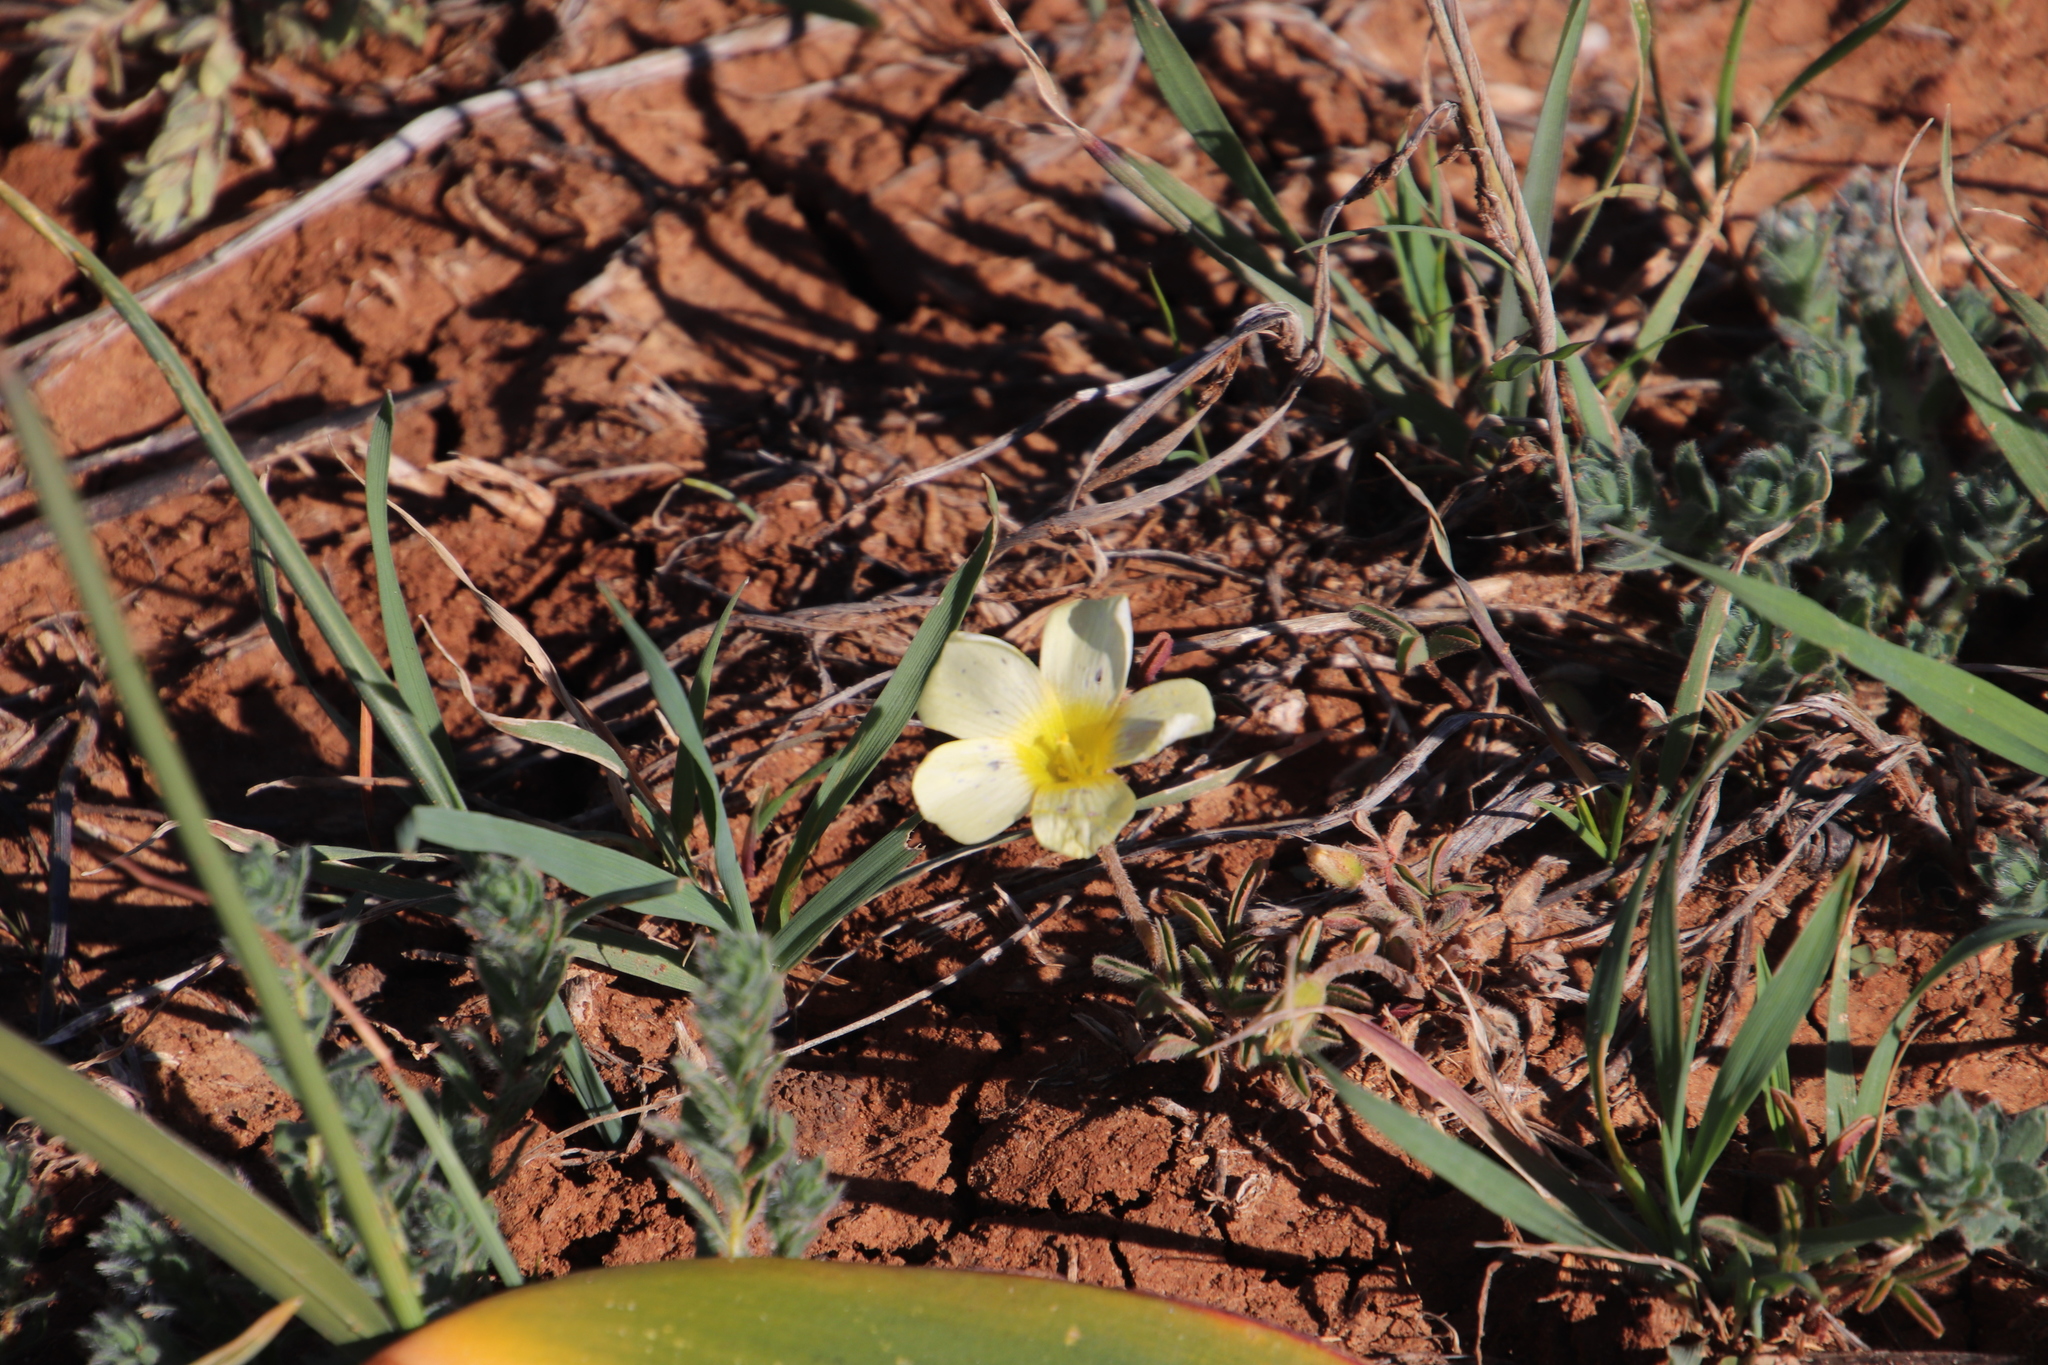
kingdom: Plantae
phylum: Tracheophyta
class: Magnoliopsida
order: Oxalidales
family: Oxalidaceae
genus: Oxalis
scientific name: Oxalis obtusa
